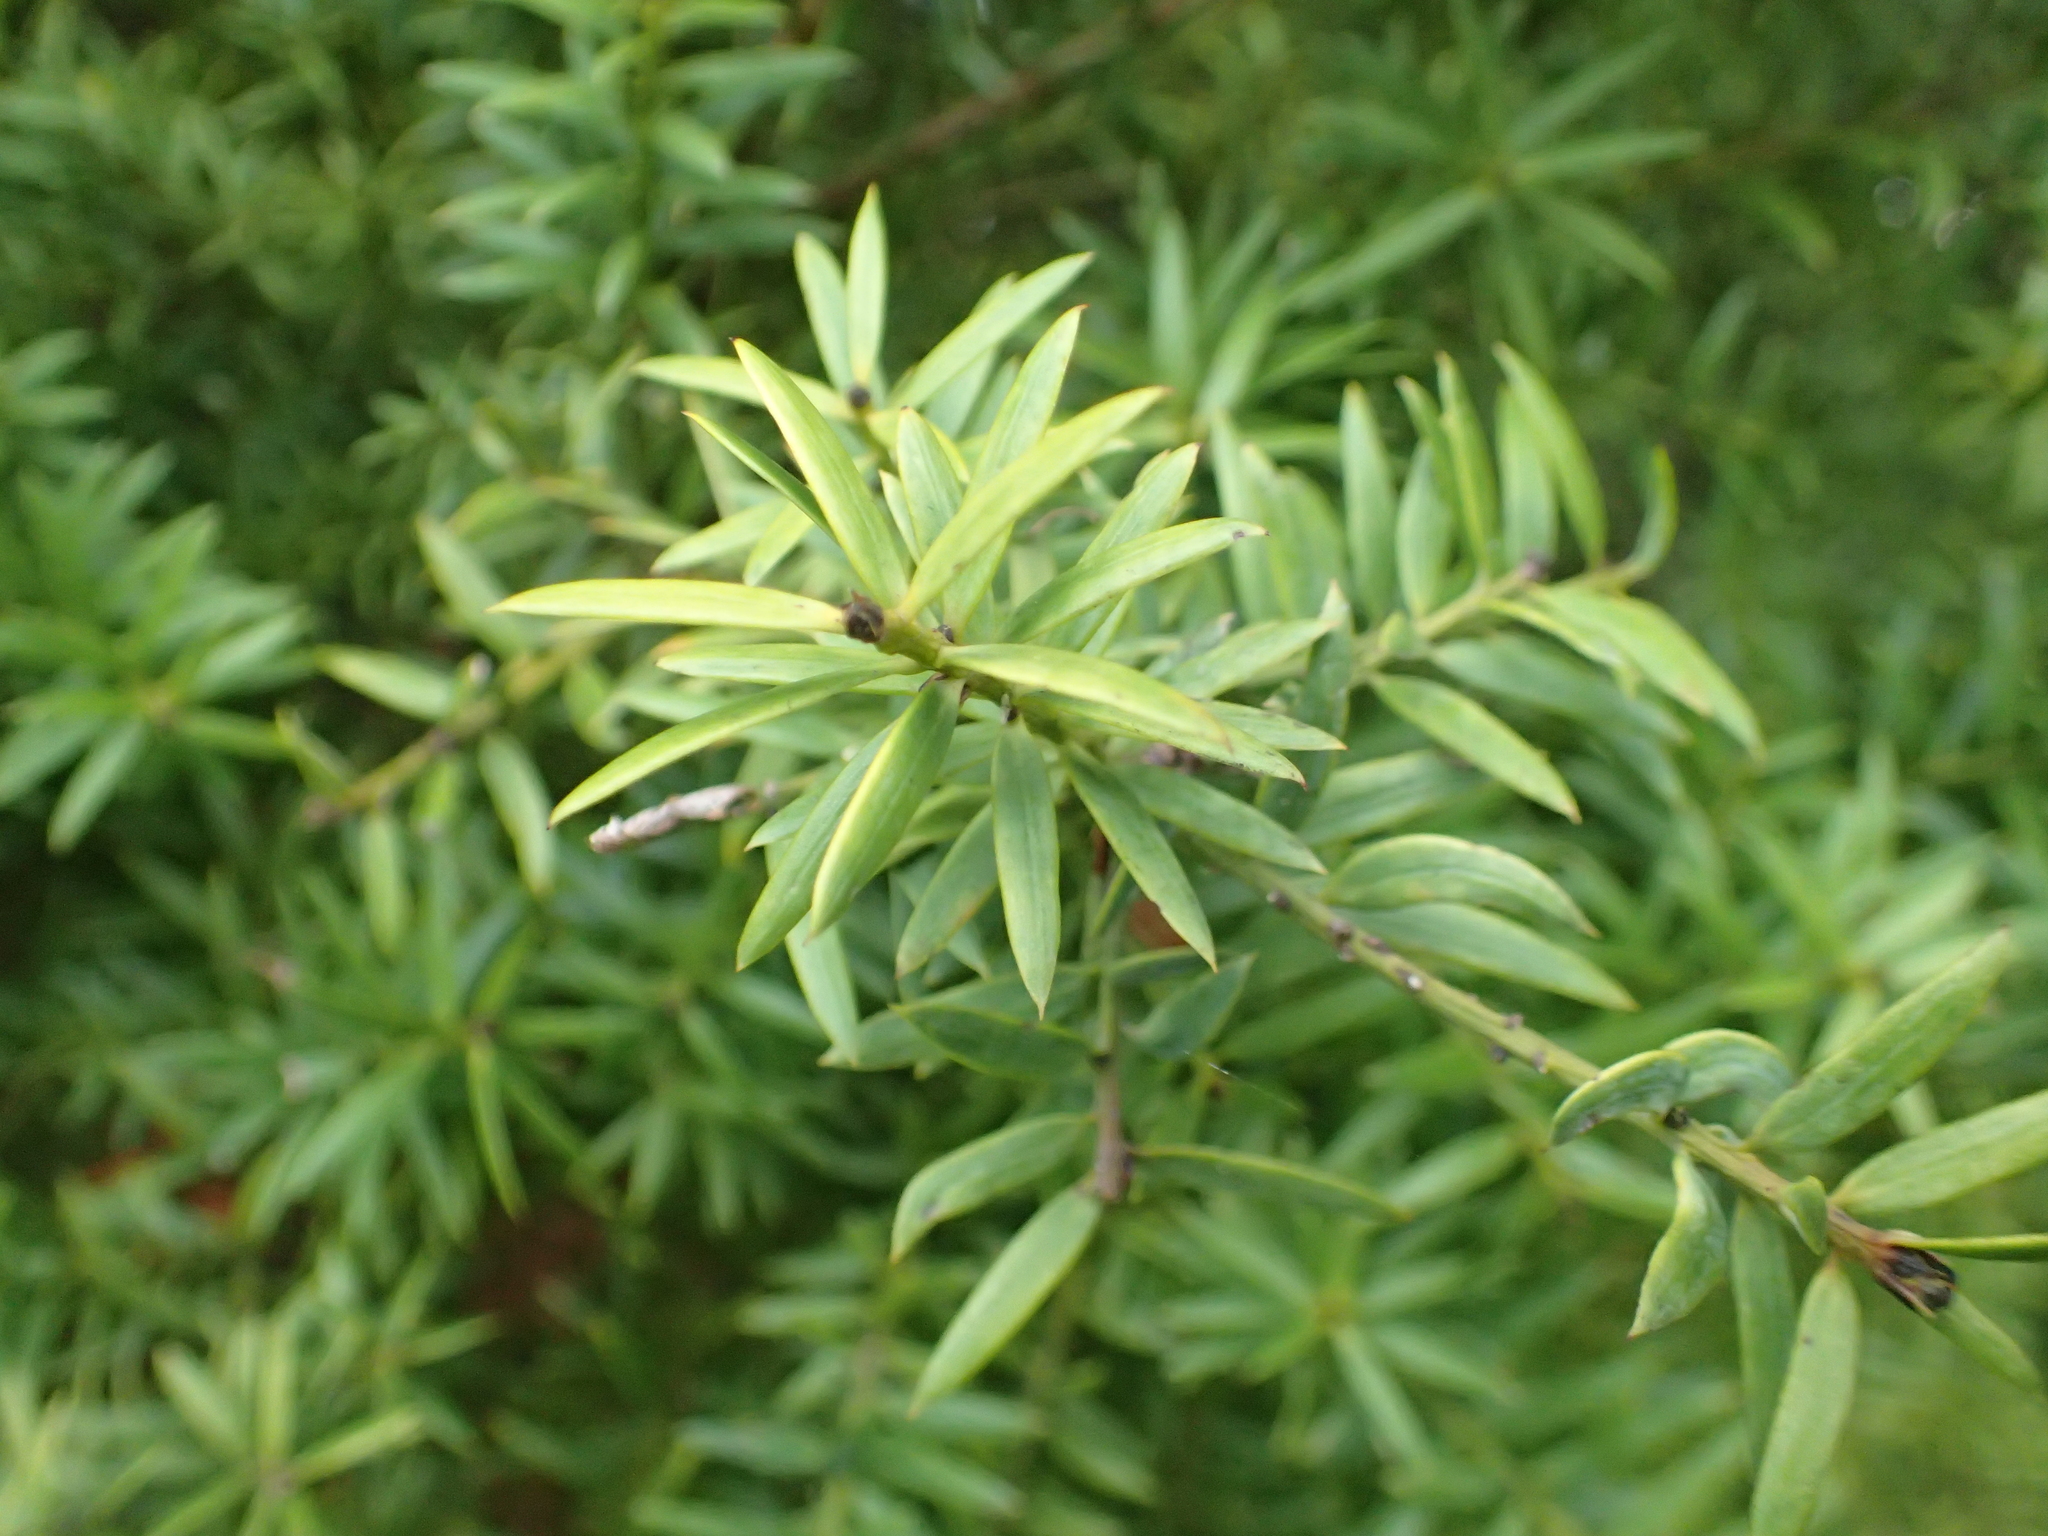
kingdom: Plantae
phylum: Tracheophyta
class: Pinopsida
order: Pinales
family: Podocarpaceae
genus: Podocarpus
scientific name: Podocarpus totara
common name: Totara
